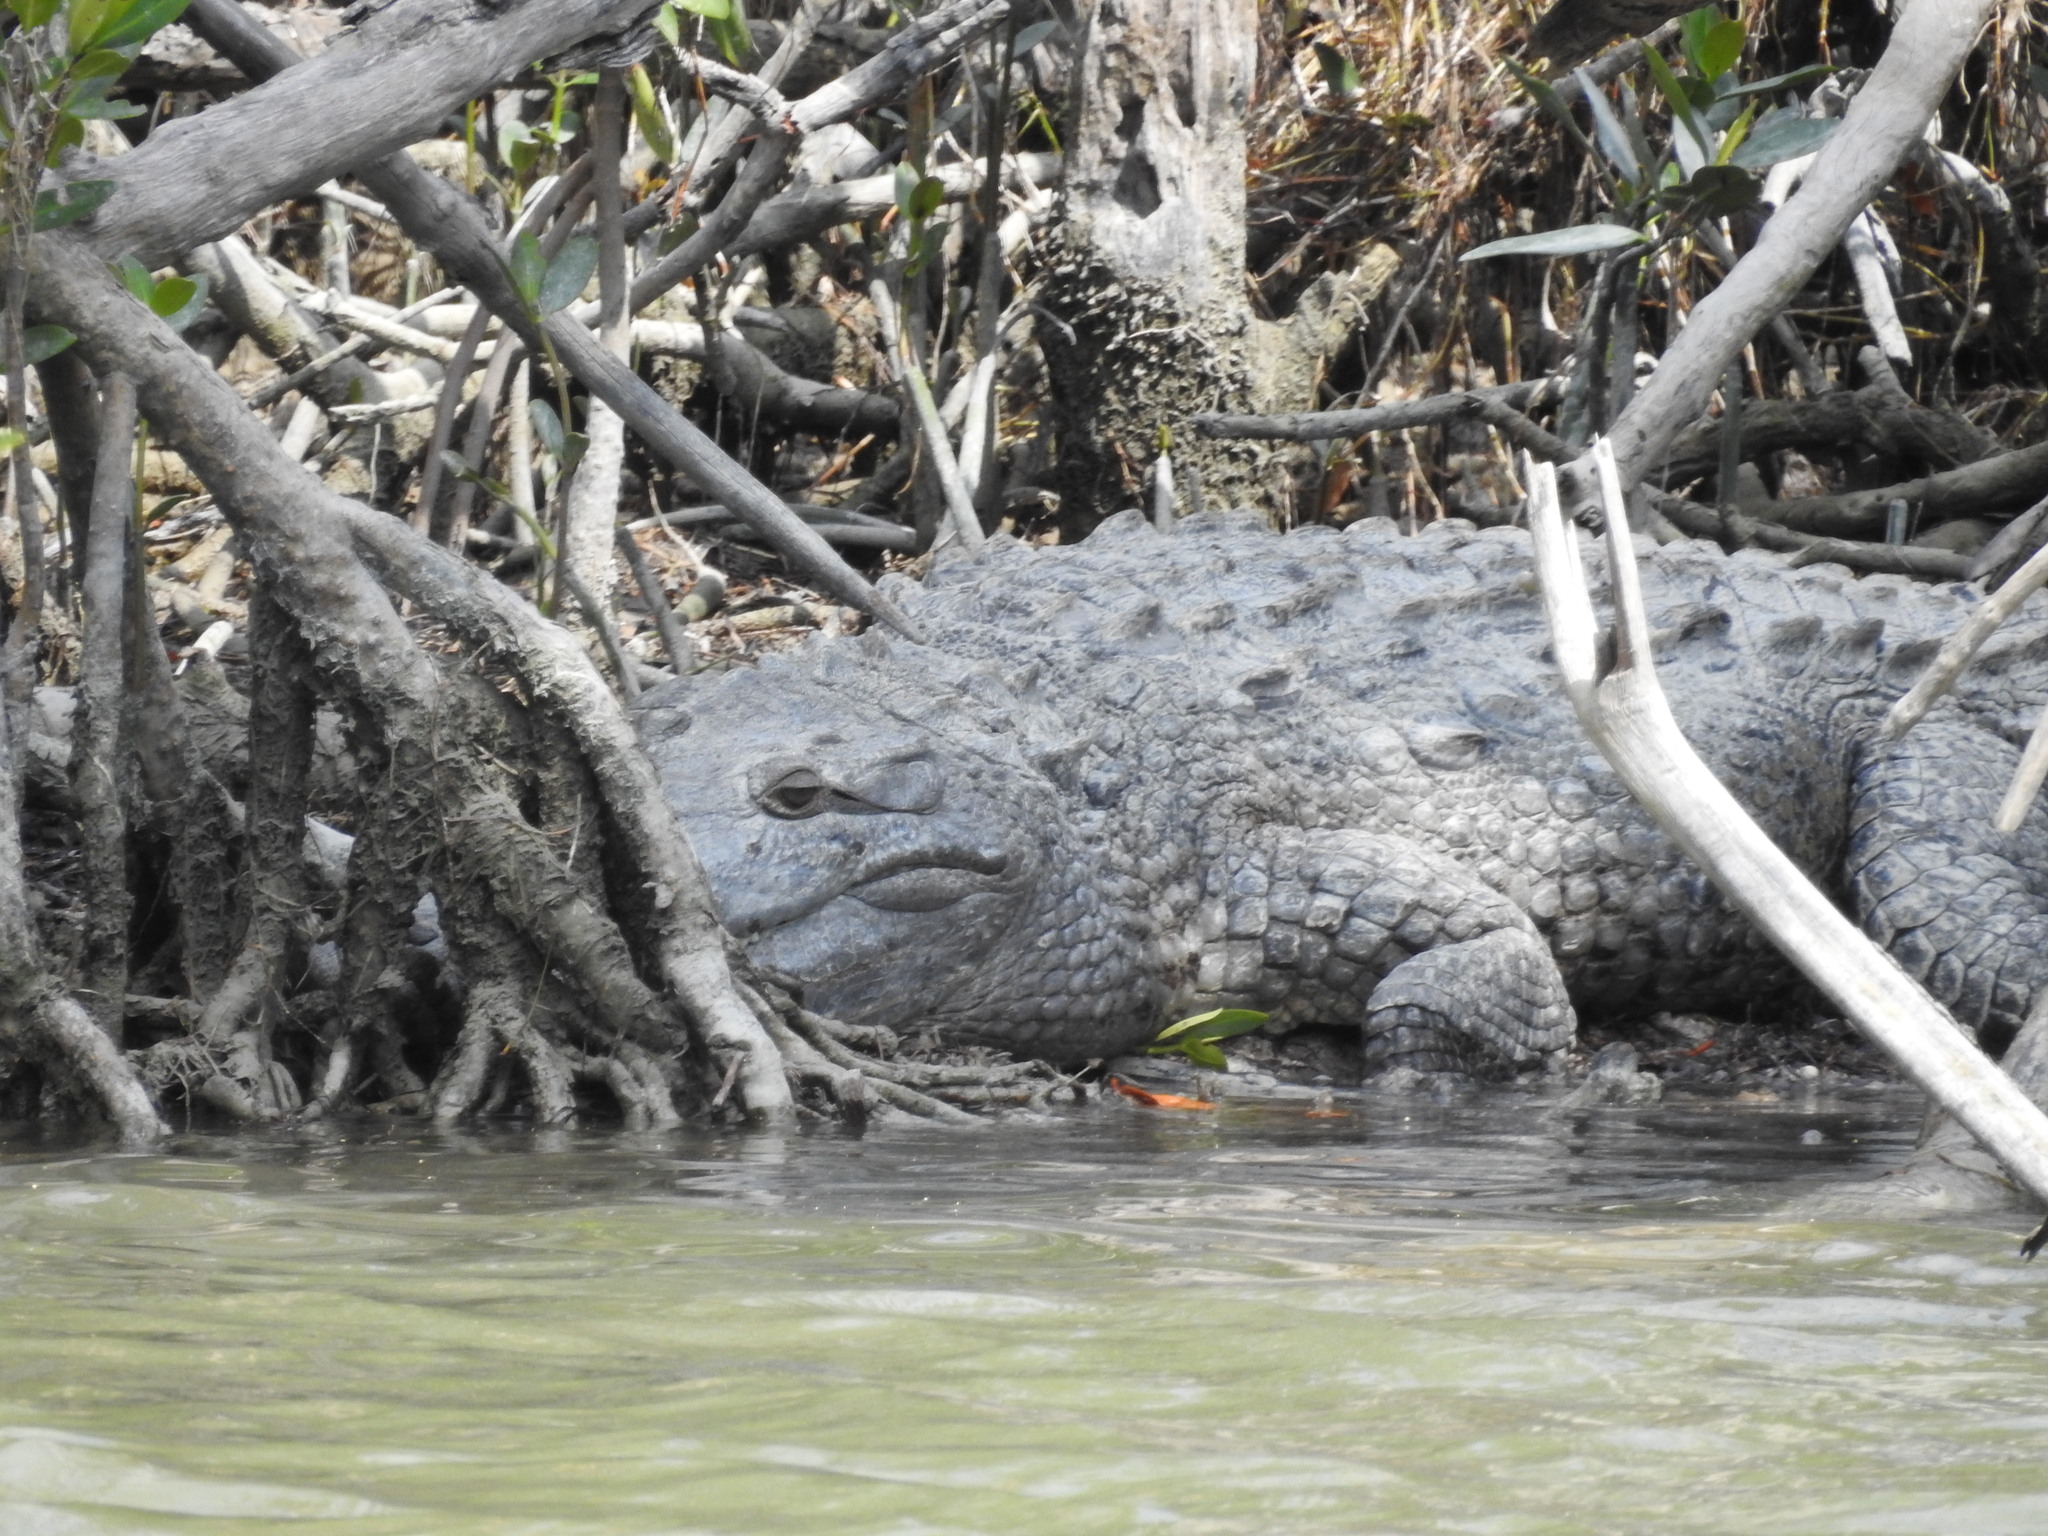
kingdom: Animalia
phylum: Chordata
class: Crocodylia
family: Crocodylidae
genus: Crocodylus
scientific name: Crocodylus acutus
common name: American crocodile
